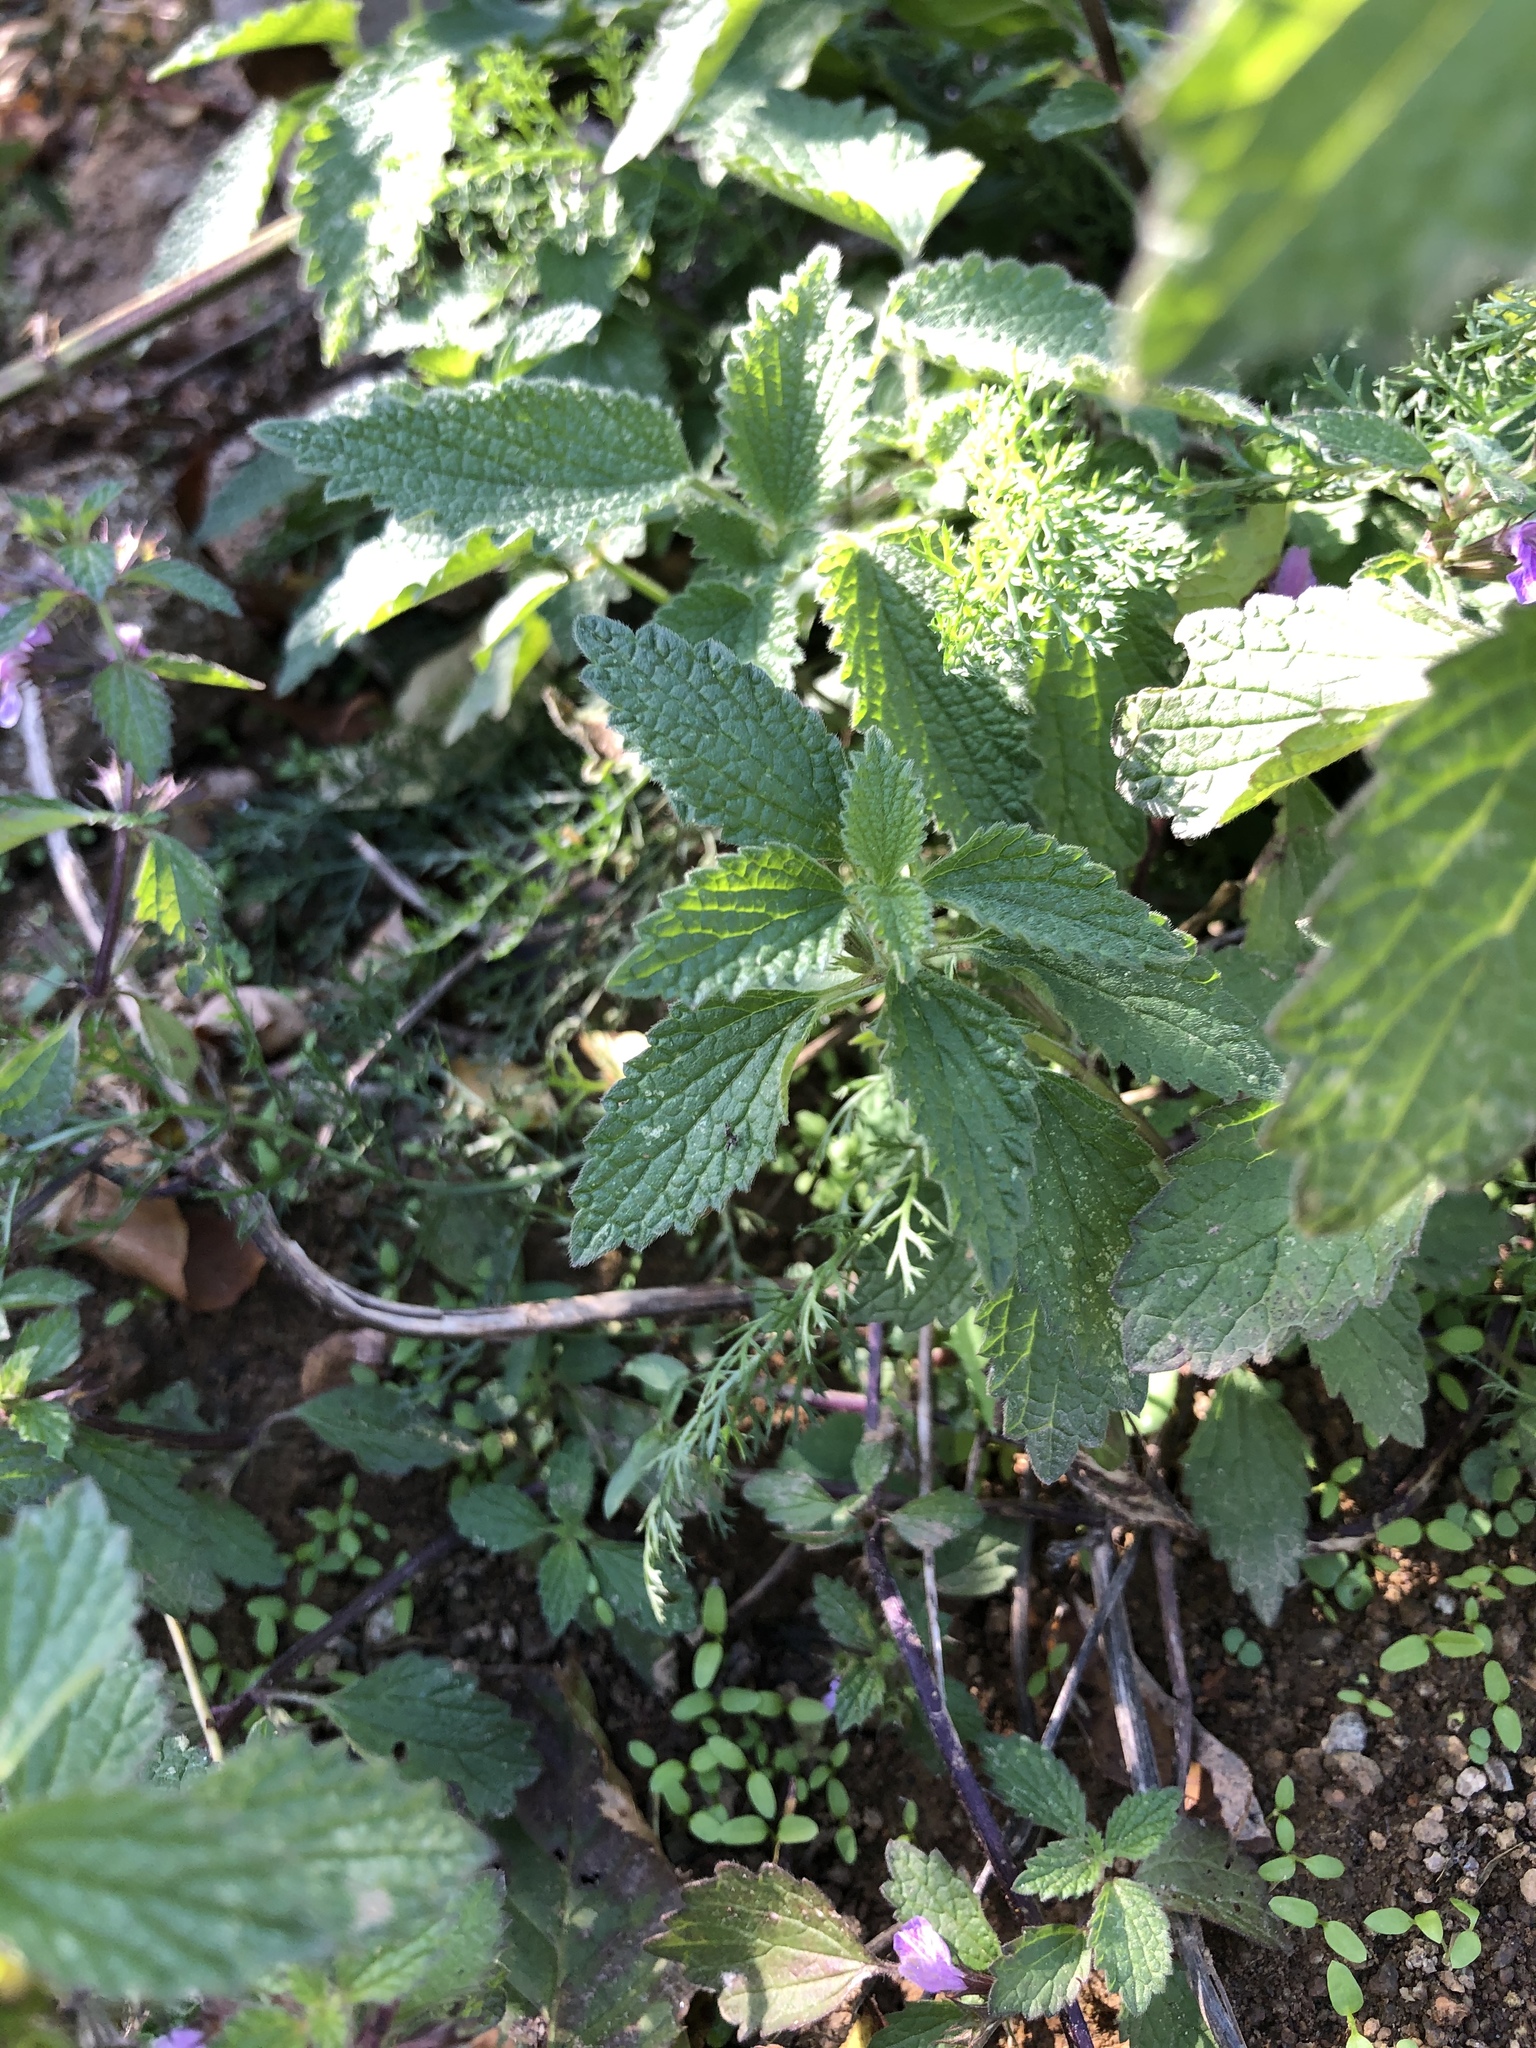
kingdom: Plantae
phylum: Tracheophyta
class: Magnoliopsida
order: Lamiales
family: Lamiaceae
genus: Ballota
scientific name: Ballota nigra
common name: Black horehound
